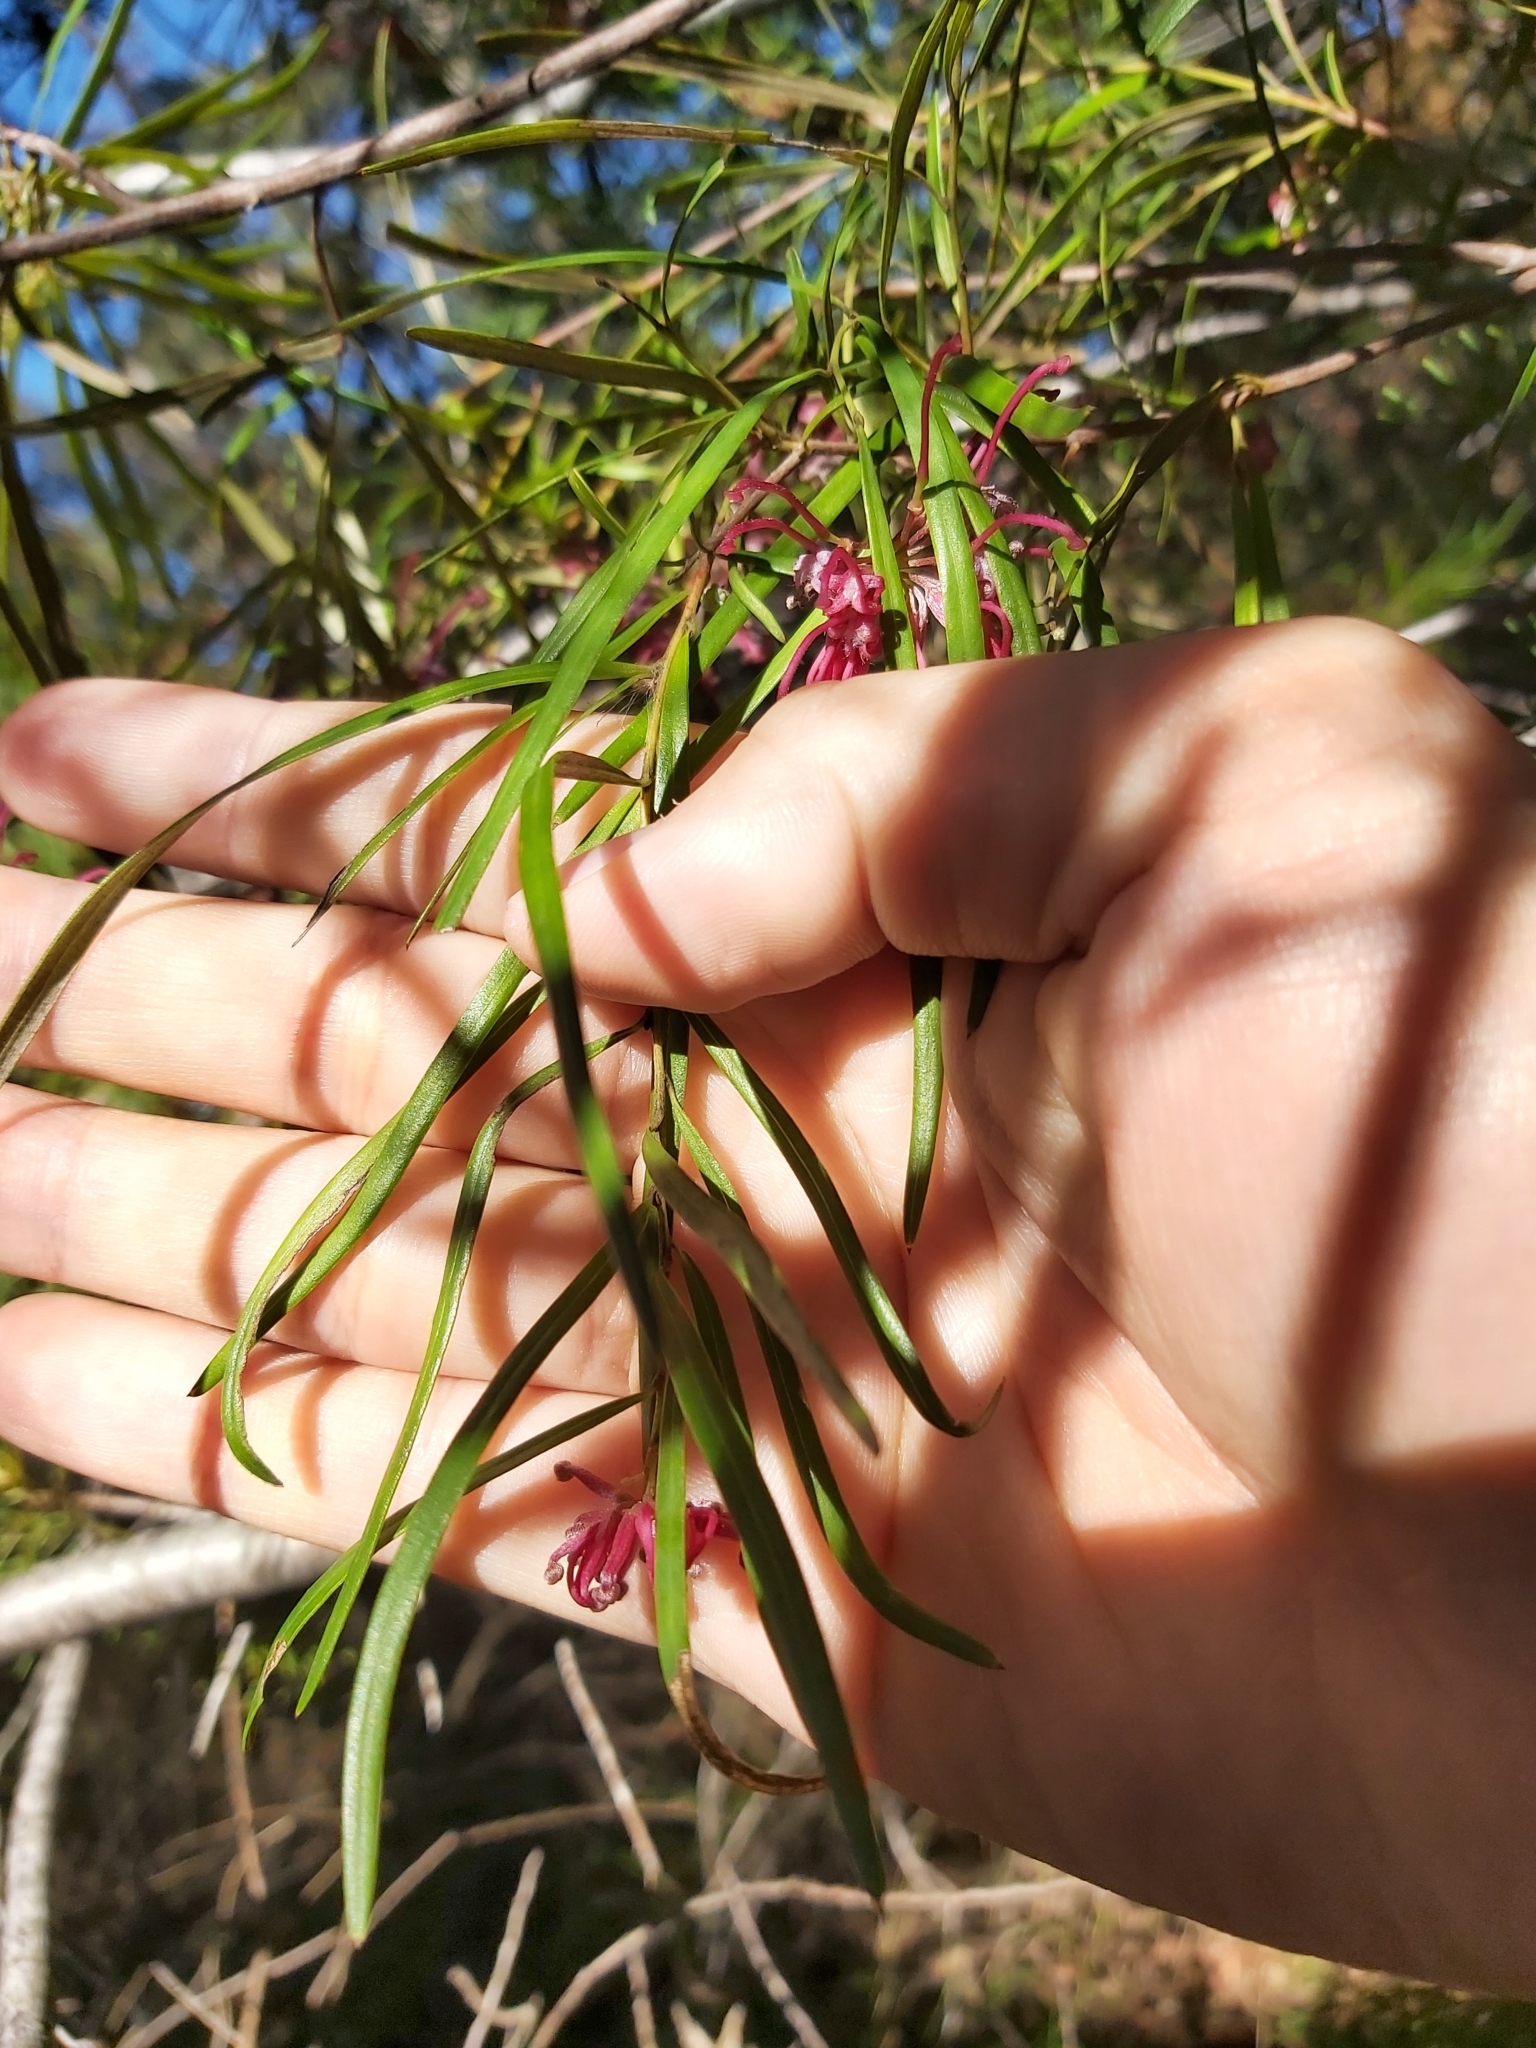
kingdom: Plantae
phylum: Tracheophyta
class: Magnoliopsida
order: Proteales
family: Proteaceae
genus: Grevillea
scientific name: Grevillea diffusa
